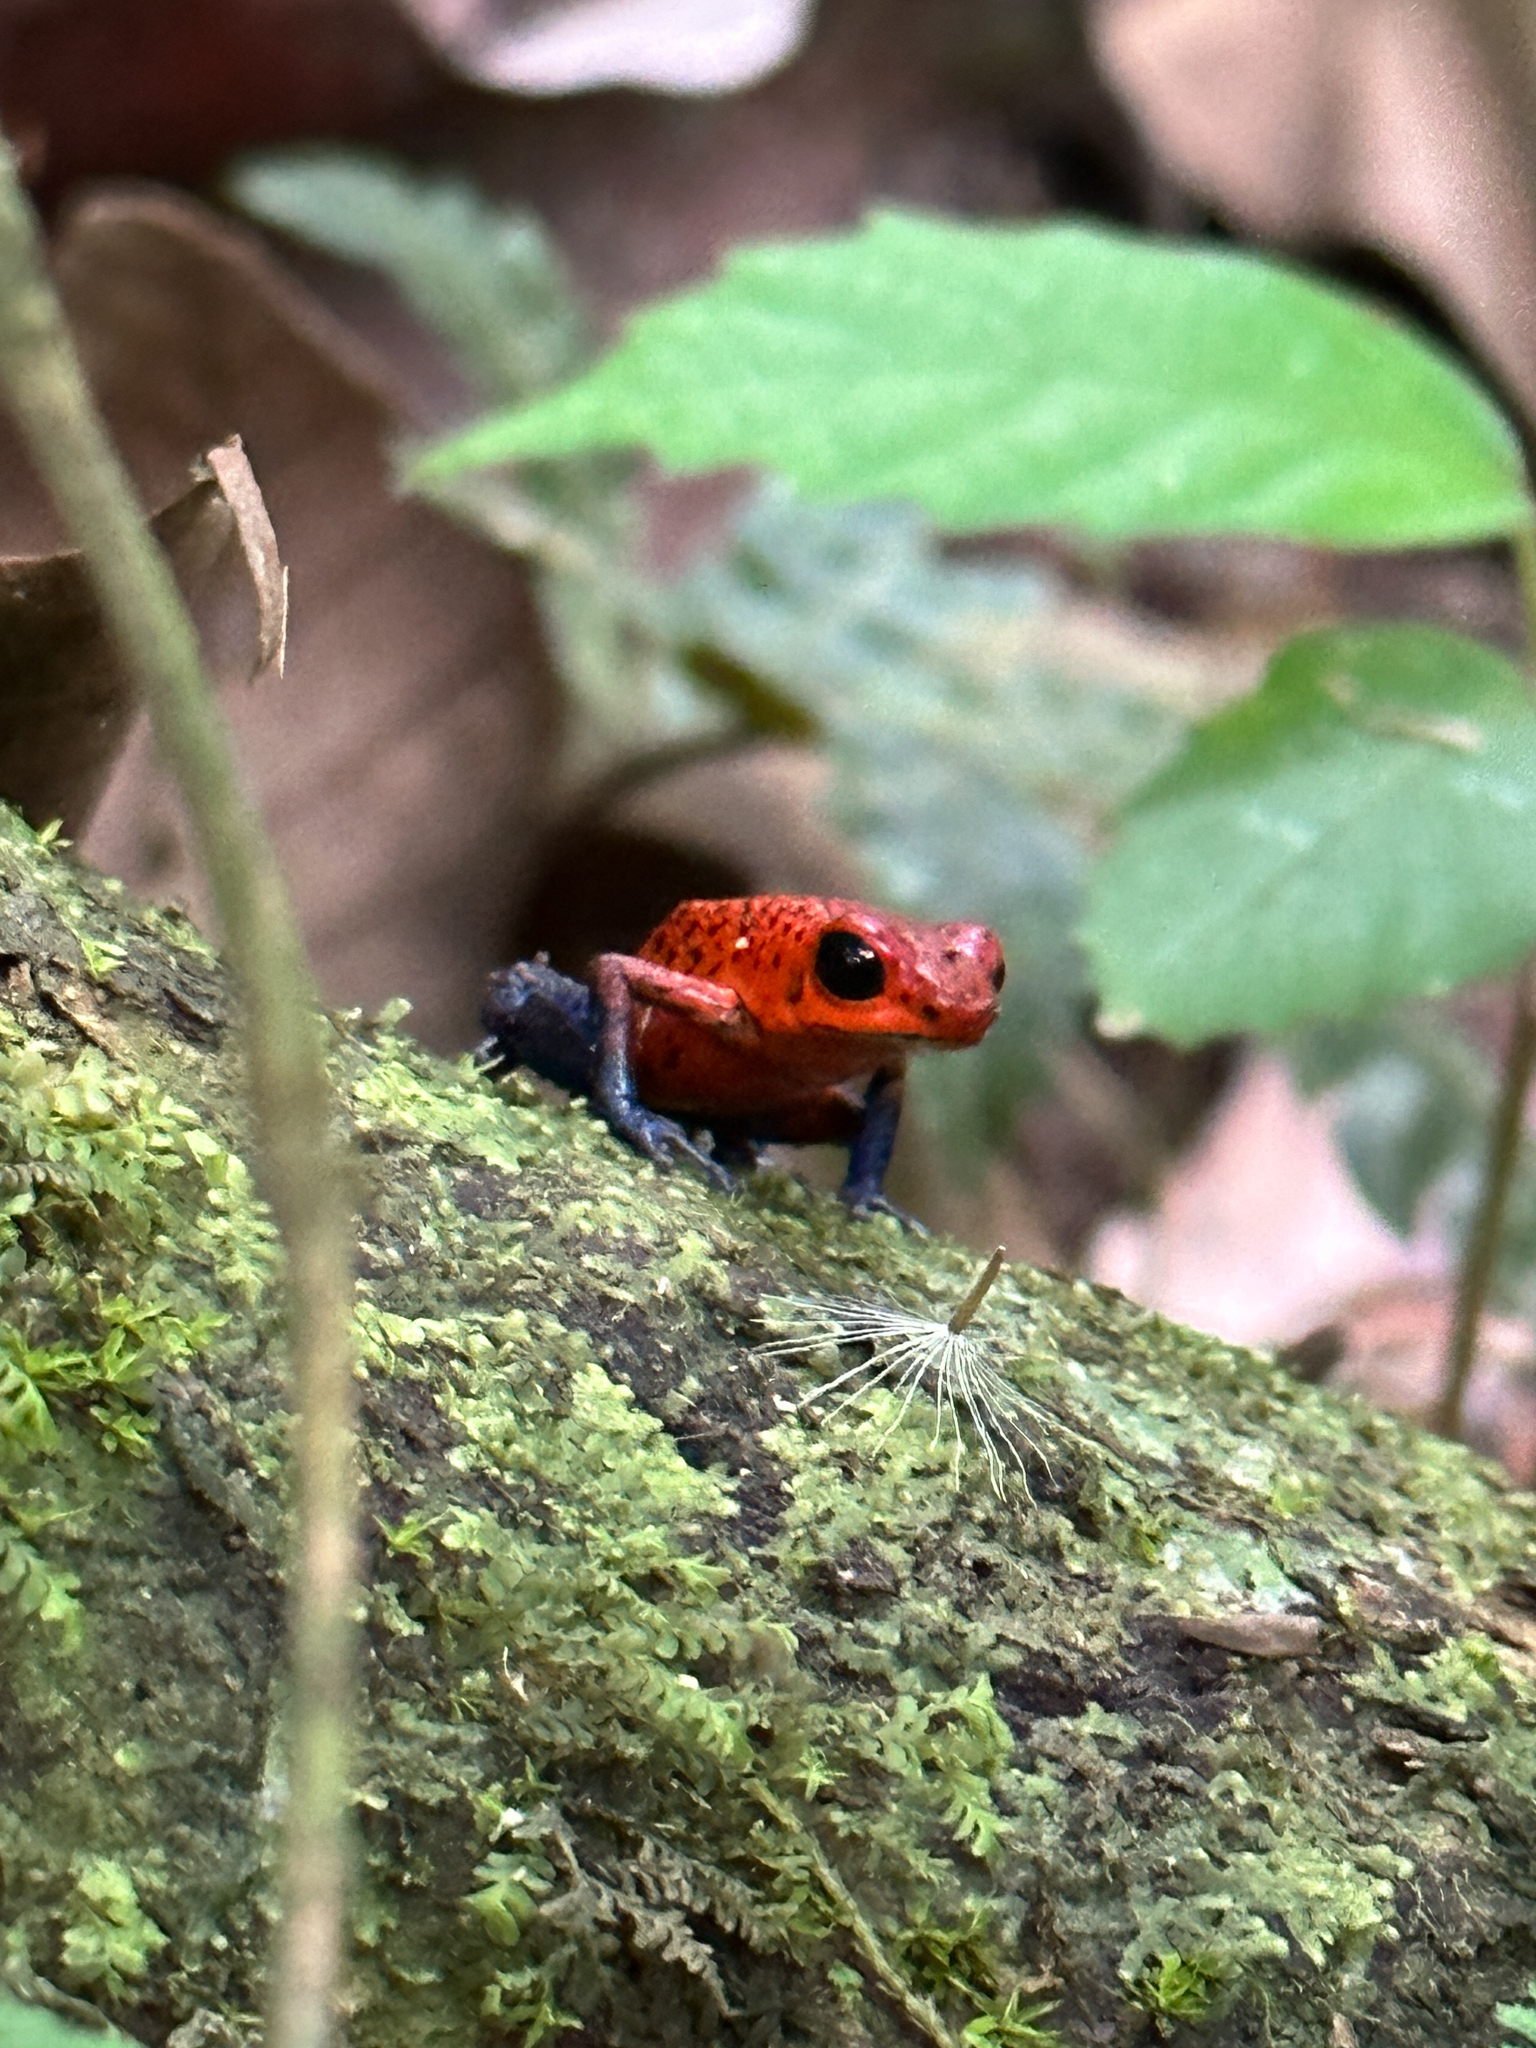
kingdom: Animalia
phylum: Chordata
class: Amphibia
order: Anura
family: Dendrobatidae
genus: Oophaga
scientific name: Oophaga pumilio
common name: Flaming poison frog
